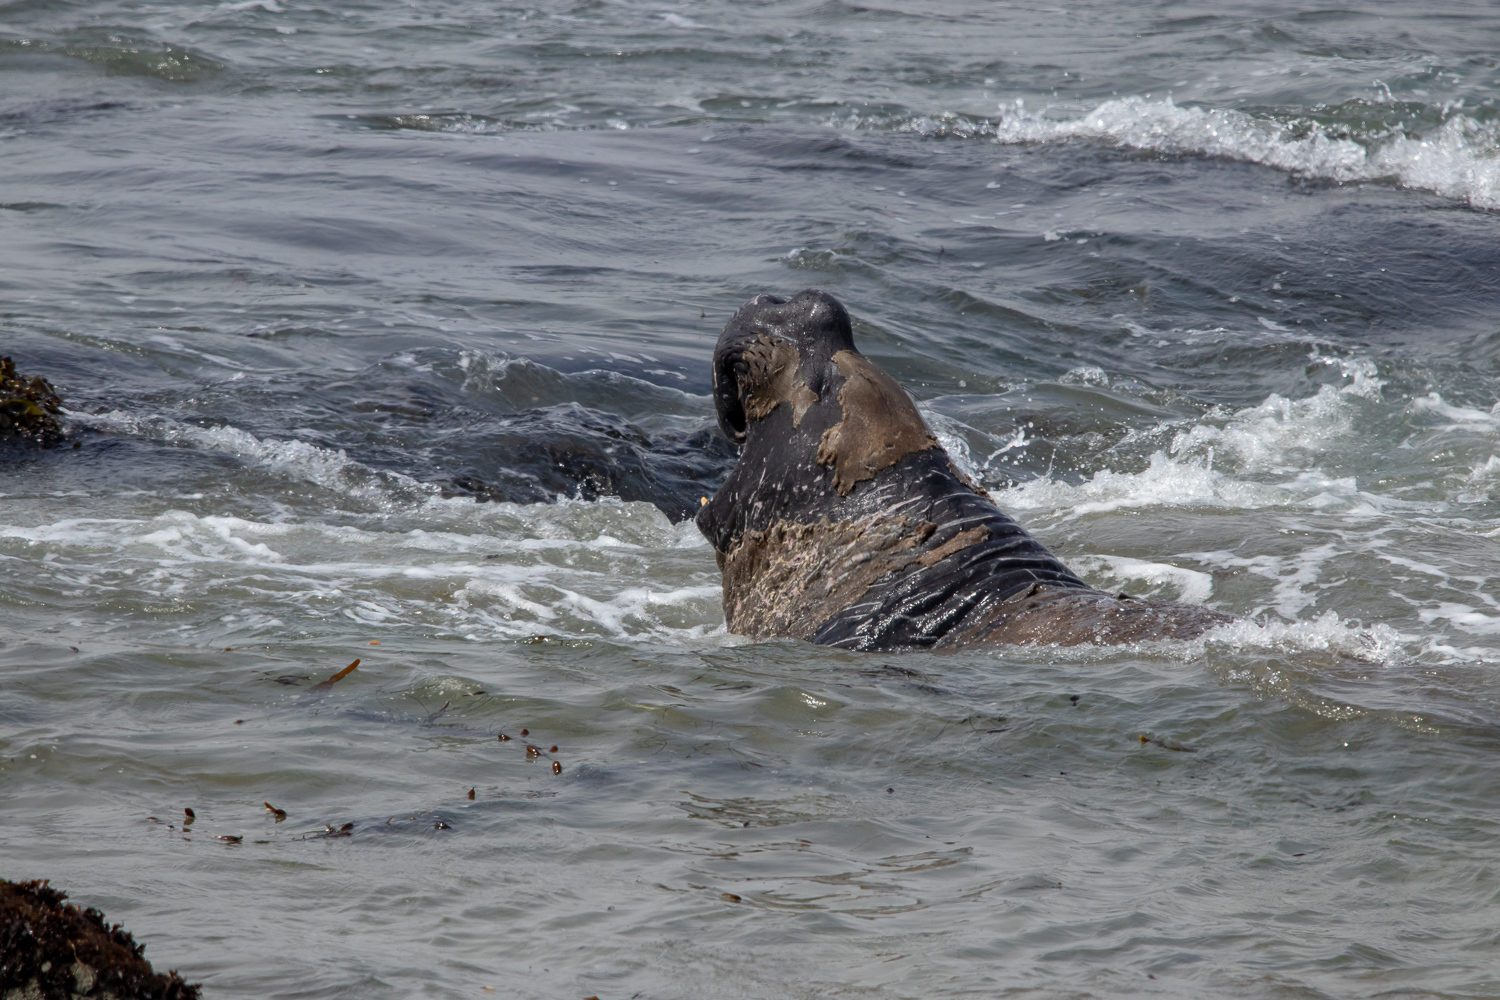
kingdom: Animalia
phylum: Chordata
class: Mammalia
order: Carnivora
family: Phocidae
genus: Mirounga
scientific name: Mirounga angustirostris
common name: Northern elephant seal
